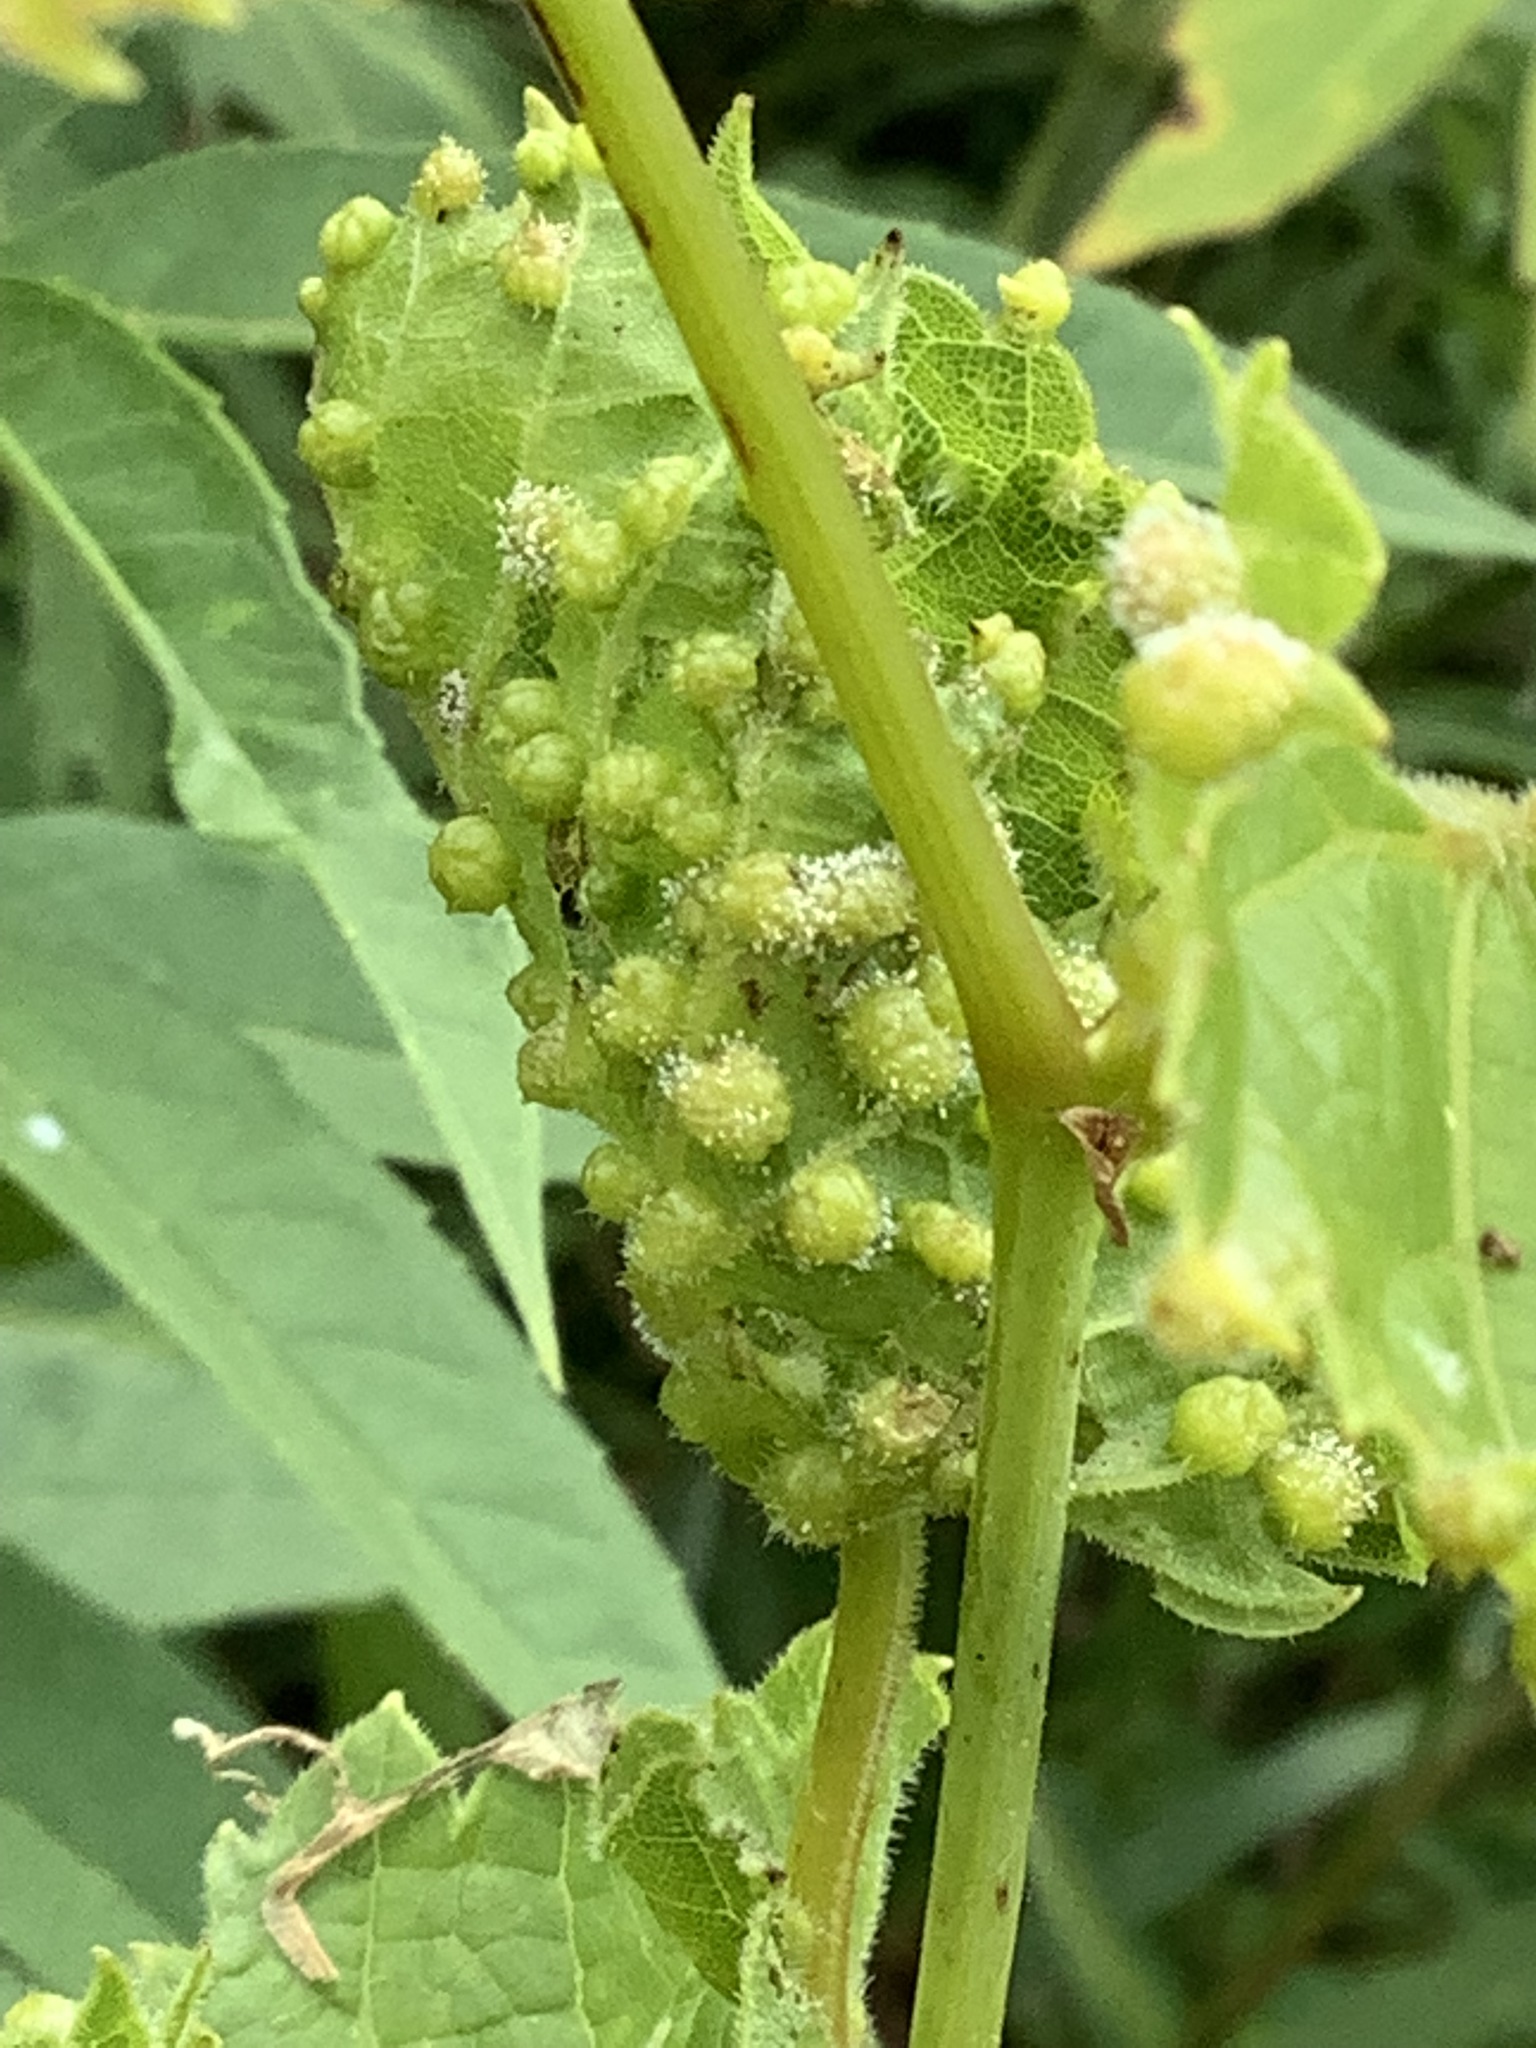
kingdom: Animalia
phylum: Arthropoda
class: Insecta
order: Hemiptera
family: Phylloxeridae
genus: Daktulosphaira
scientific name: Daktulosphaira vitifoliae
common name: Grape phylloxera
